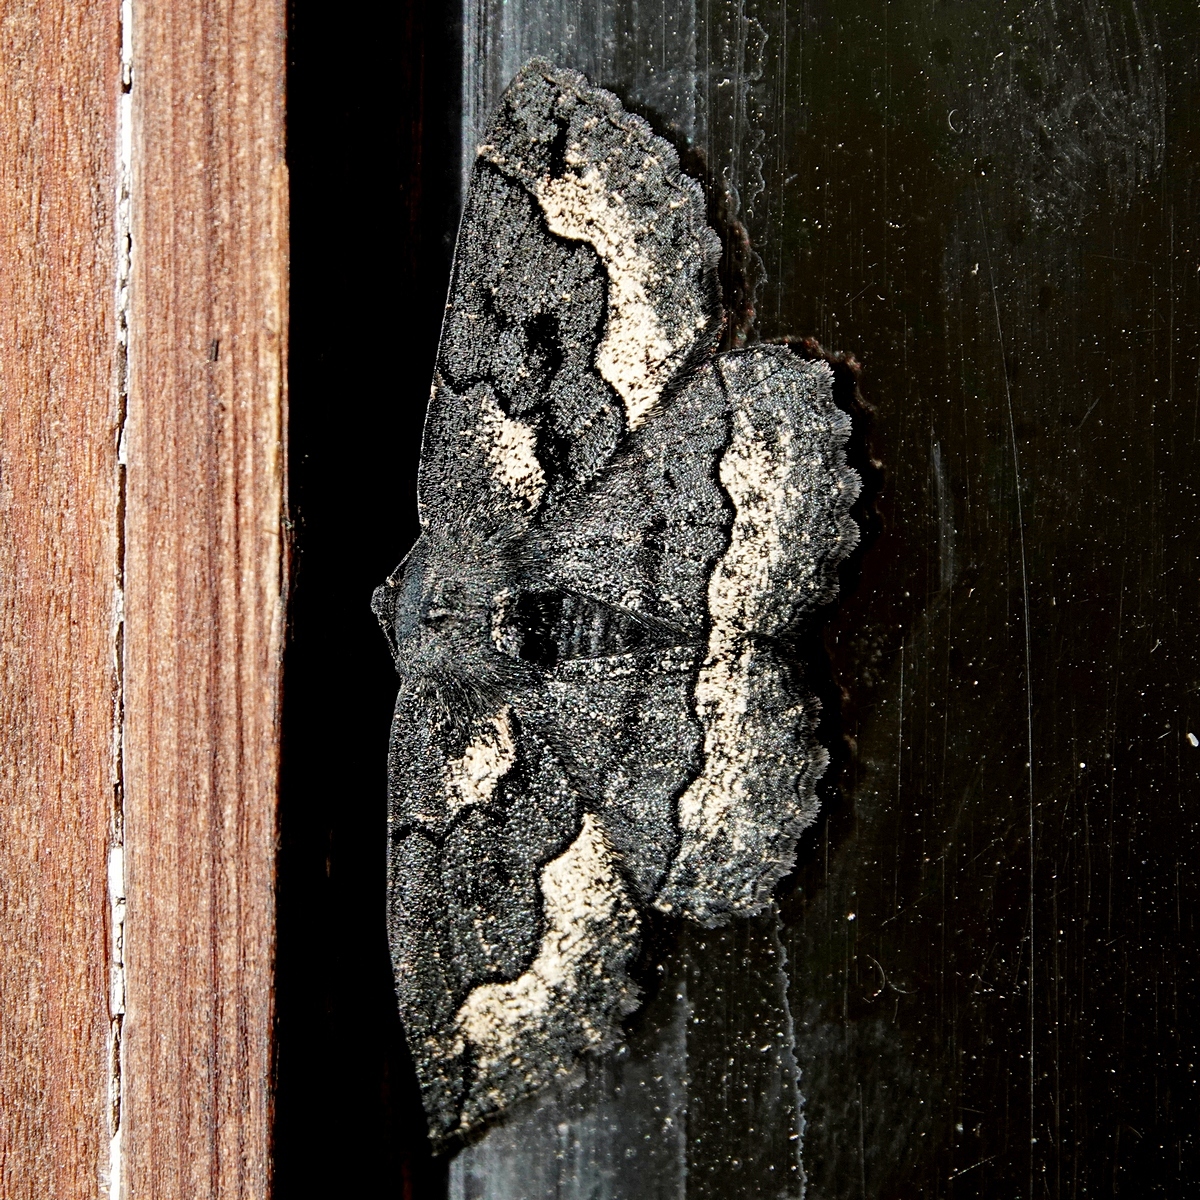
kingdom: Animalia
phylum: Arthropoda
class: Insecta
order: Lepidoptera
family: Geometridae
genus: Melanodes
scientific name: Melanodes anthracitaria
